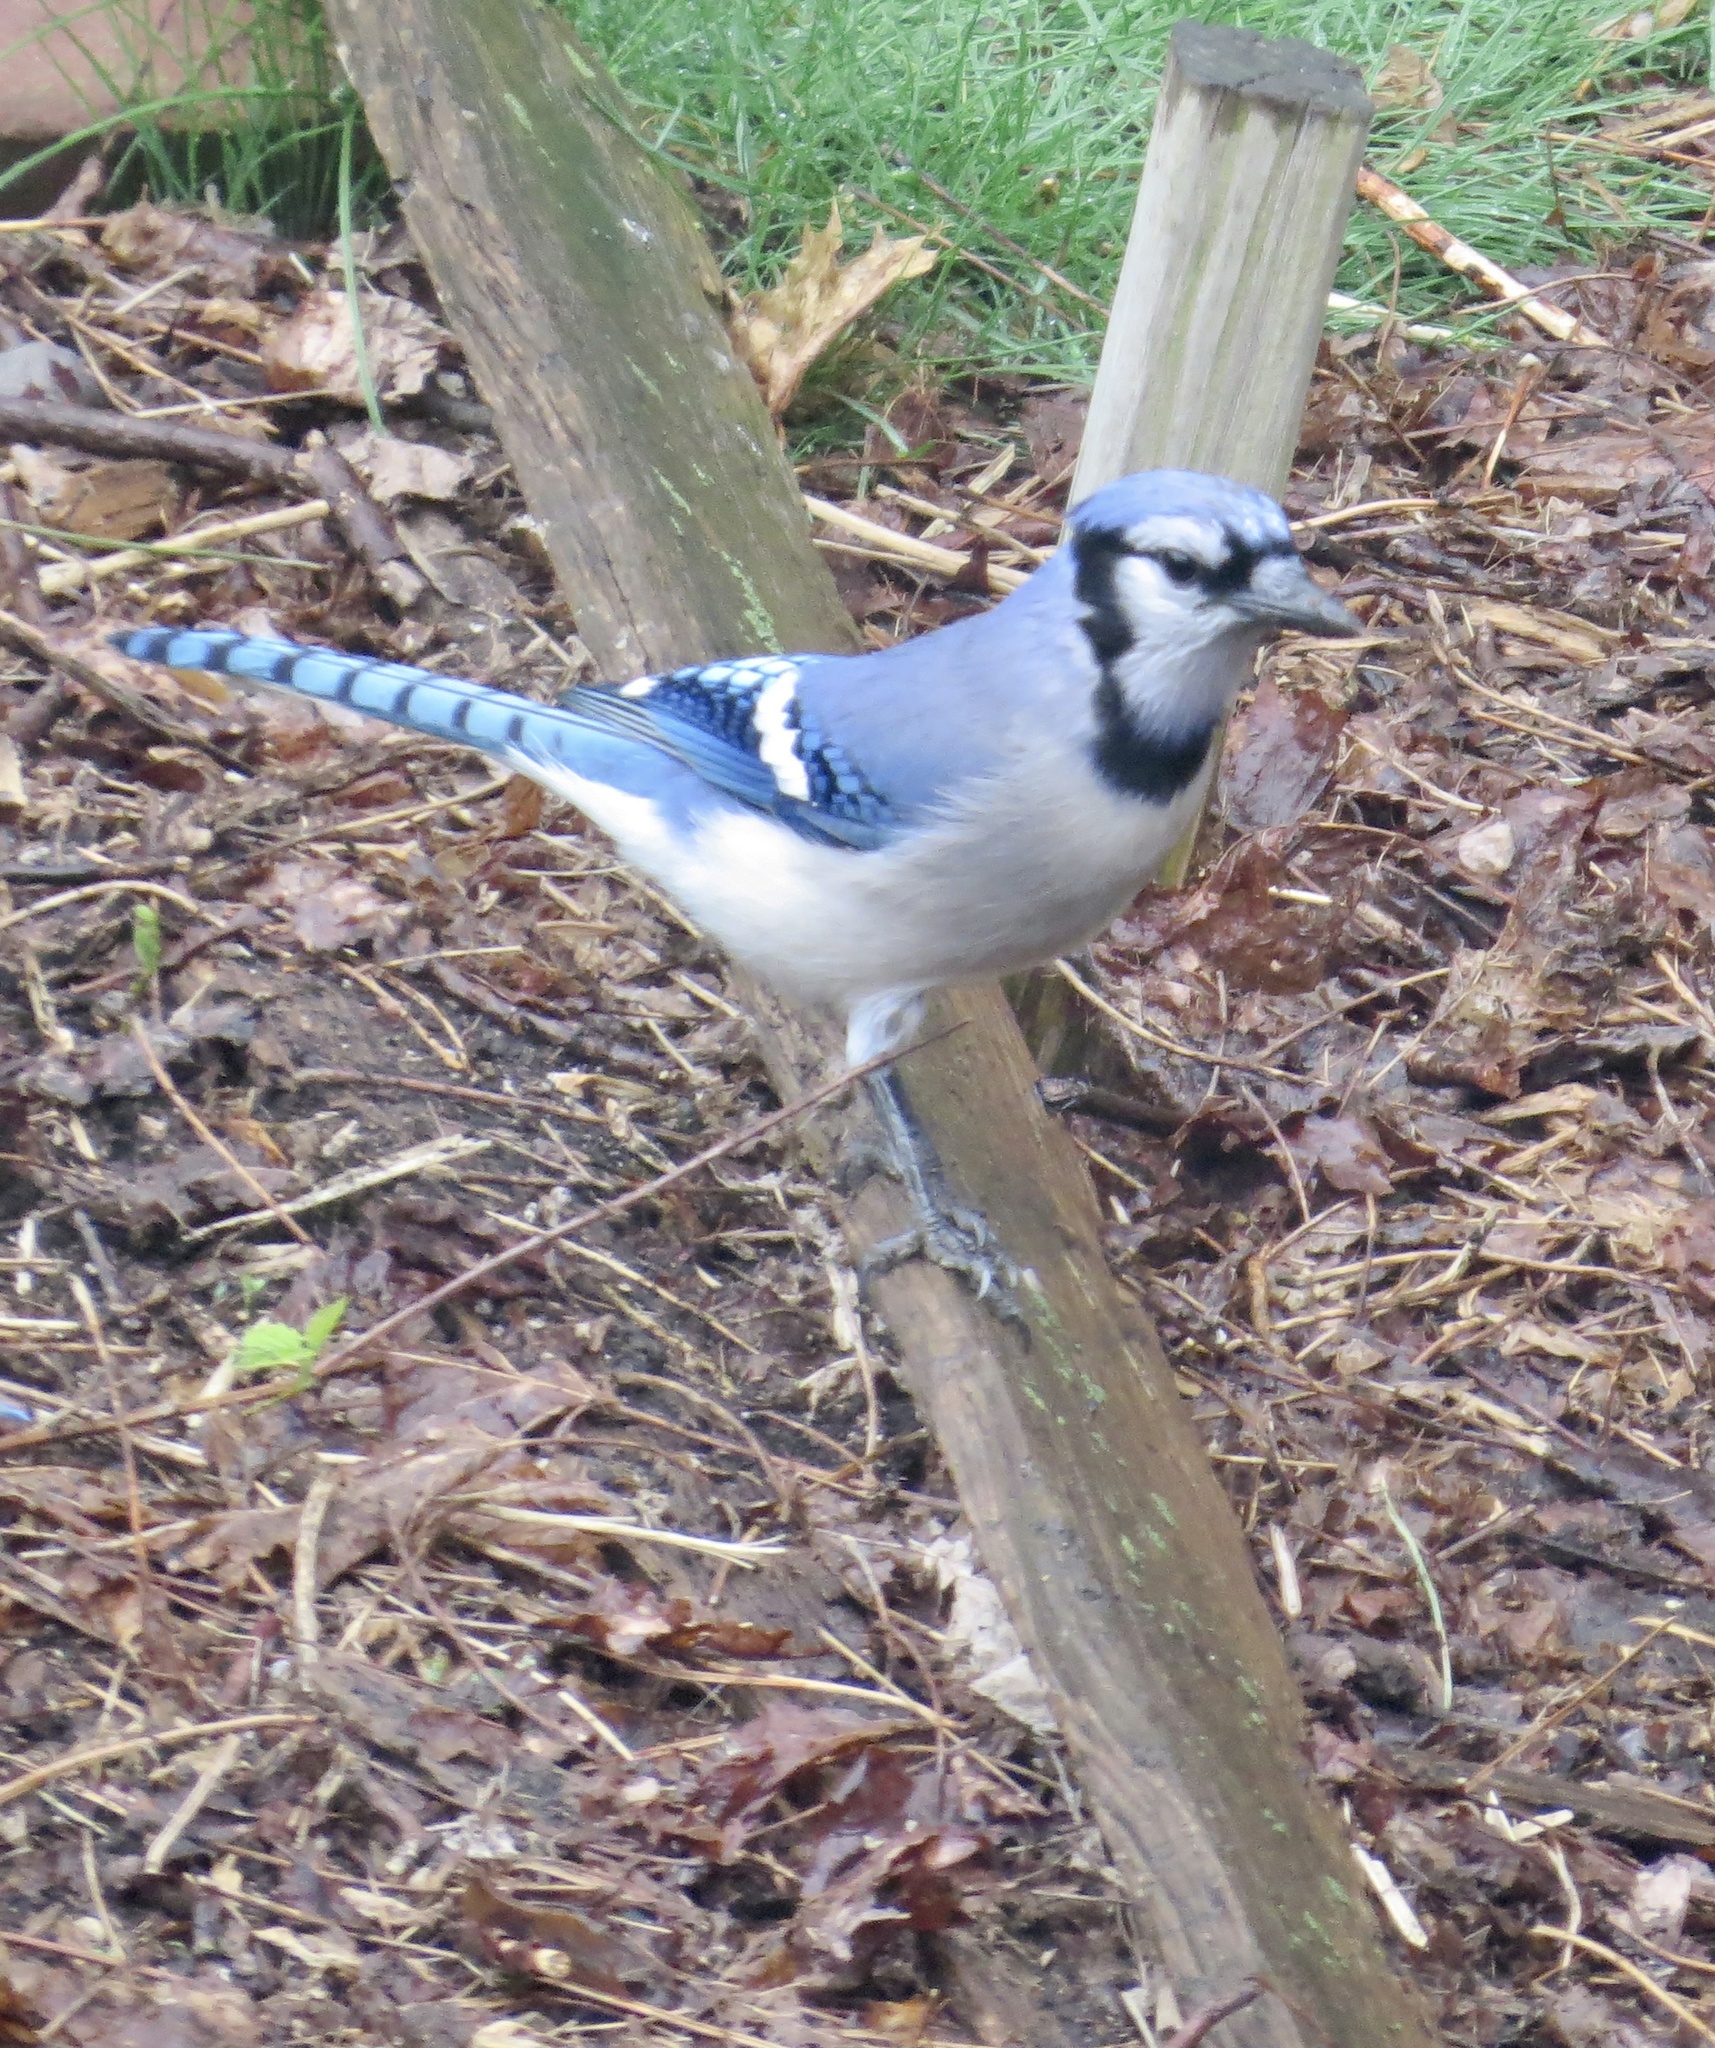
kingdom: Animalia
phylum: Chordata
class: Aves
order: Passeriformes
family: Corvidae
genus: Cyanocitta
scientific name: Cyanocitta cristata
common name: Blue jay
